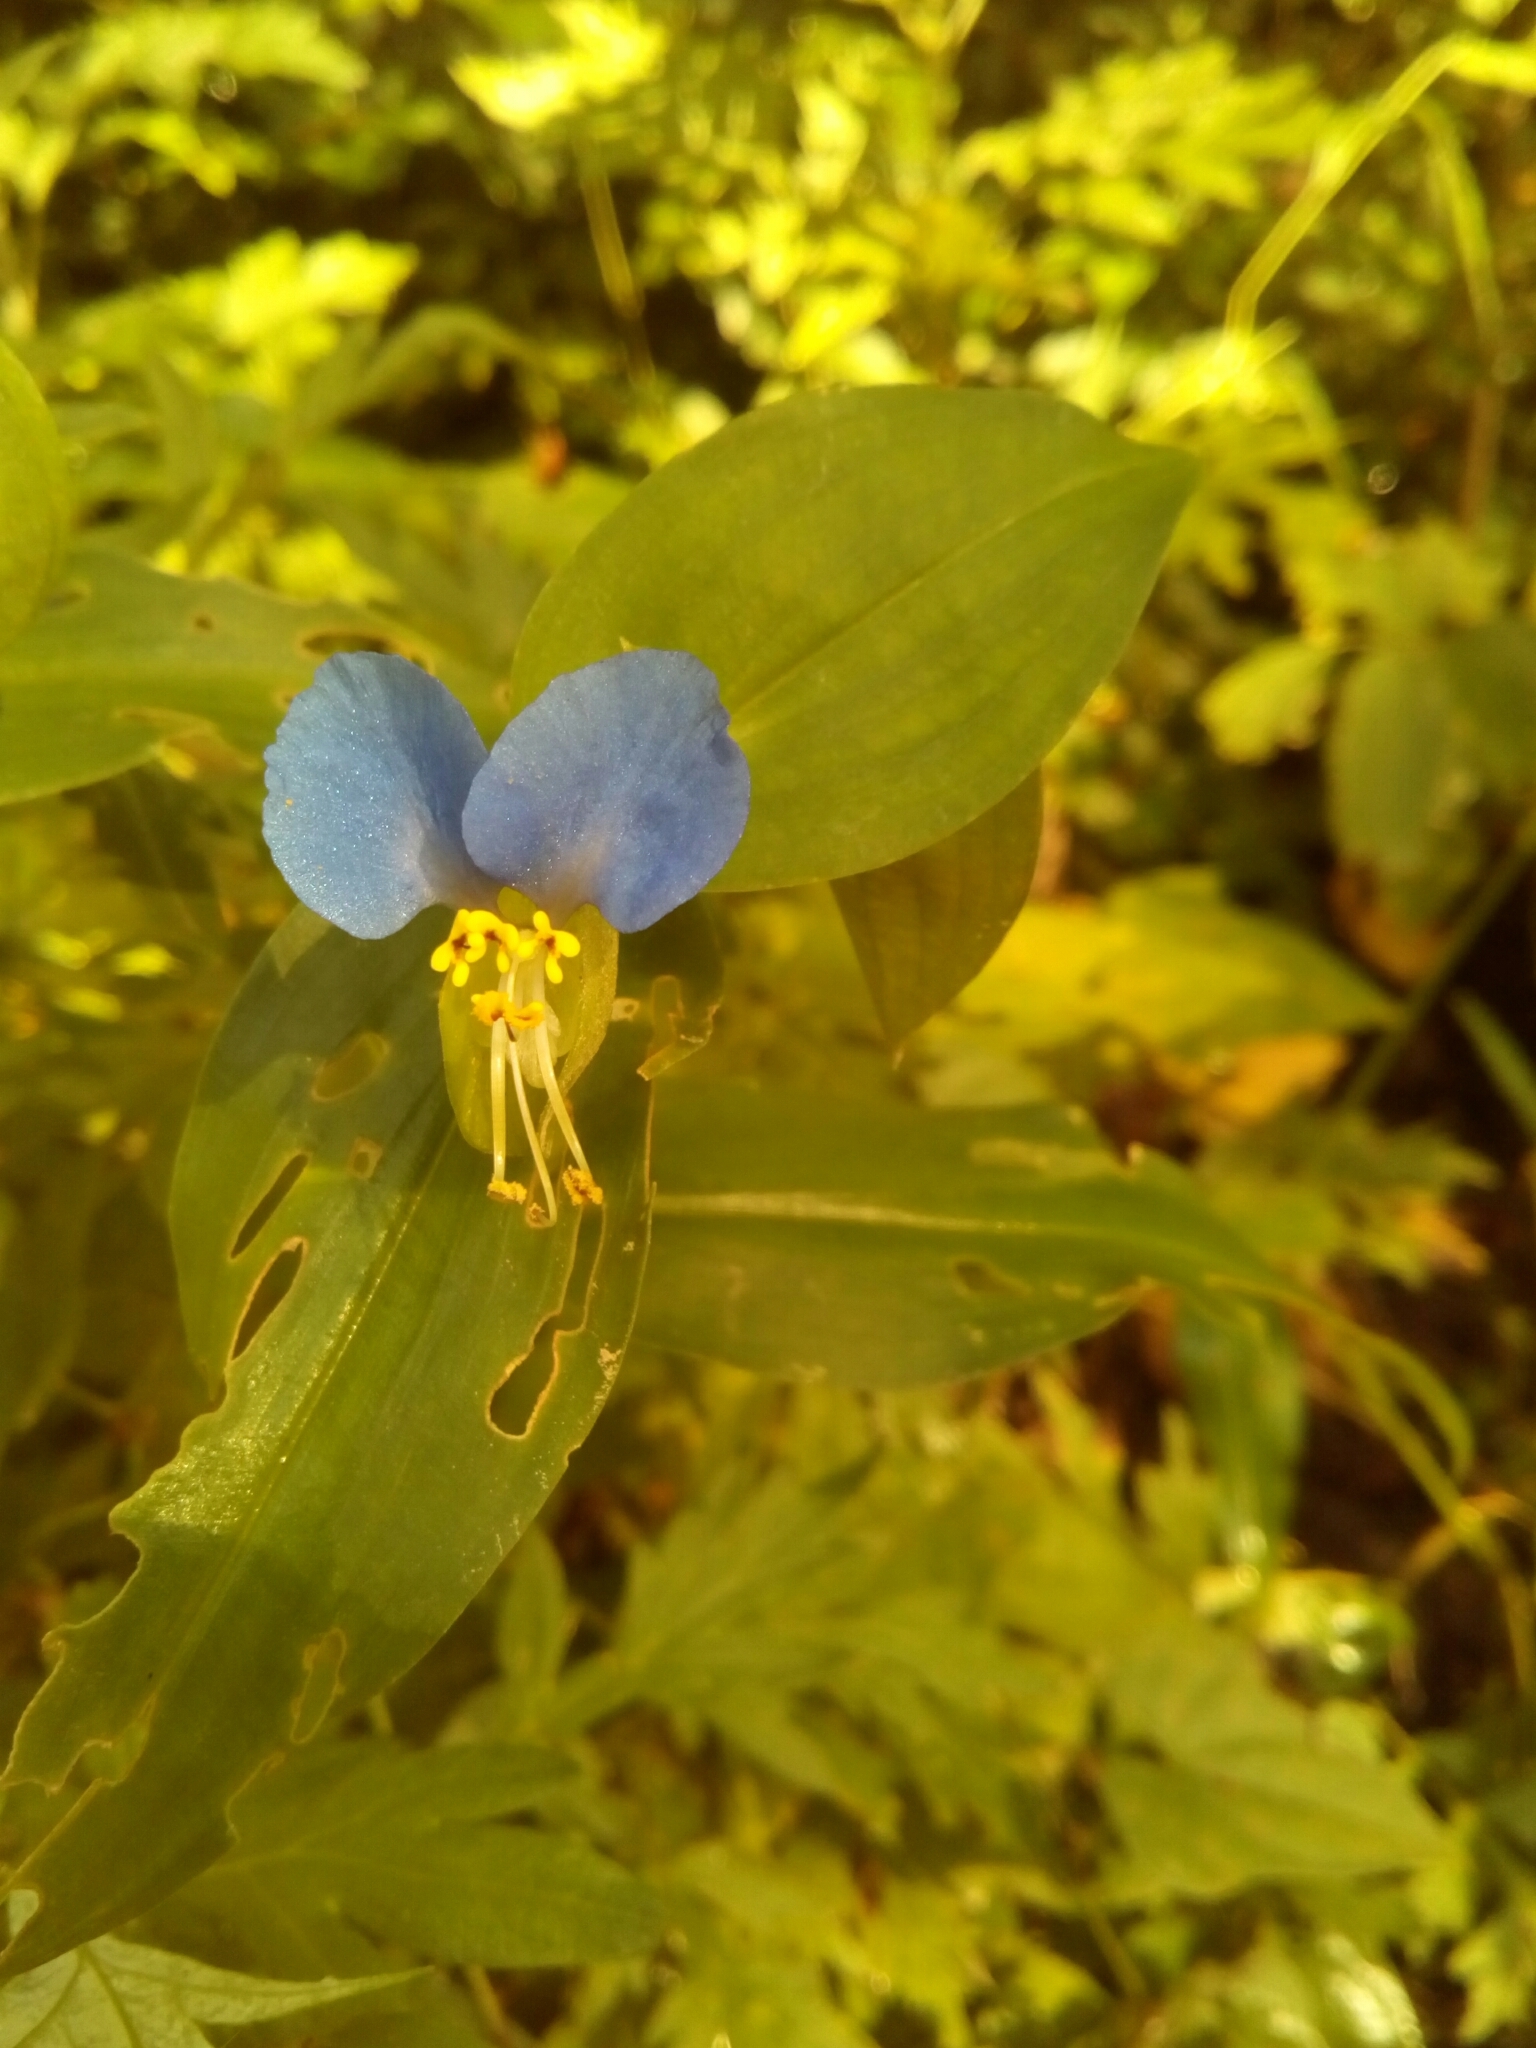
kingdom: Plantae
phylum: Tracheophyta
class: Liliopsida
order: Commelinales
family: Commelinaceae
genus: Commelina
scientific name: Commelina communis
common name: Asiatic dayflower
